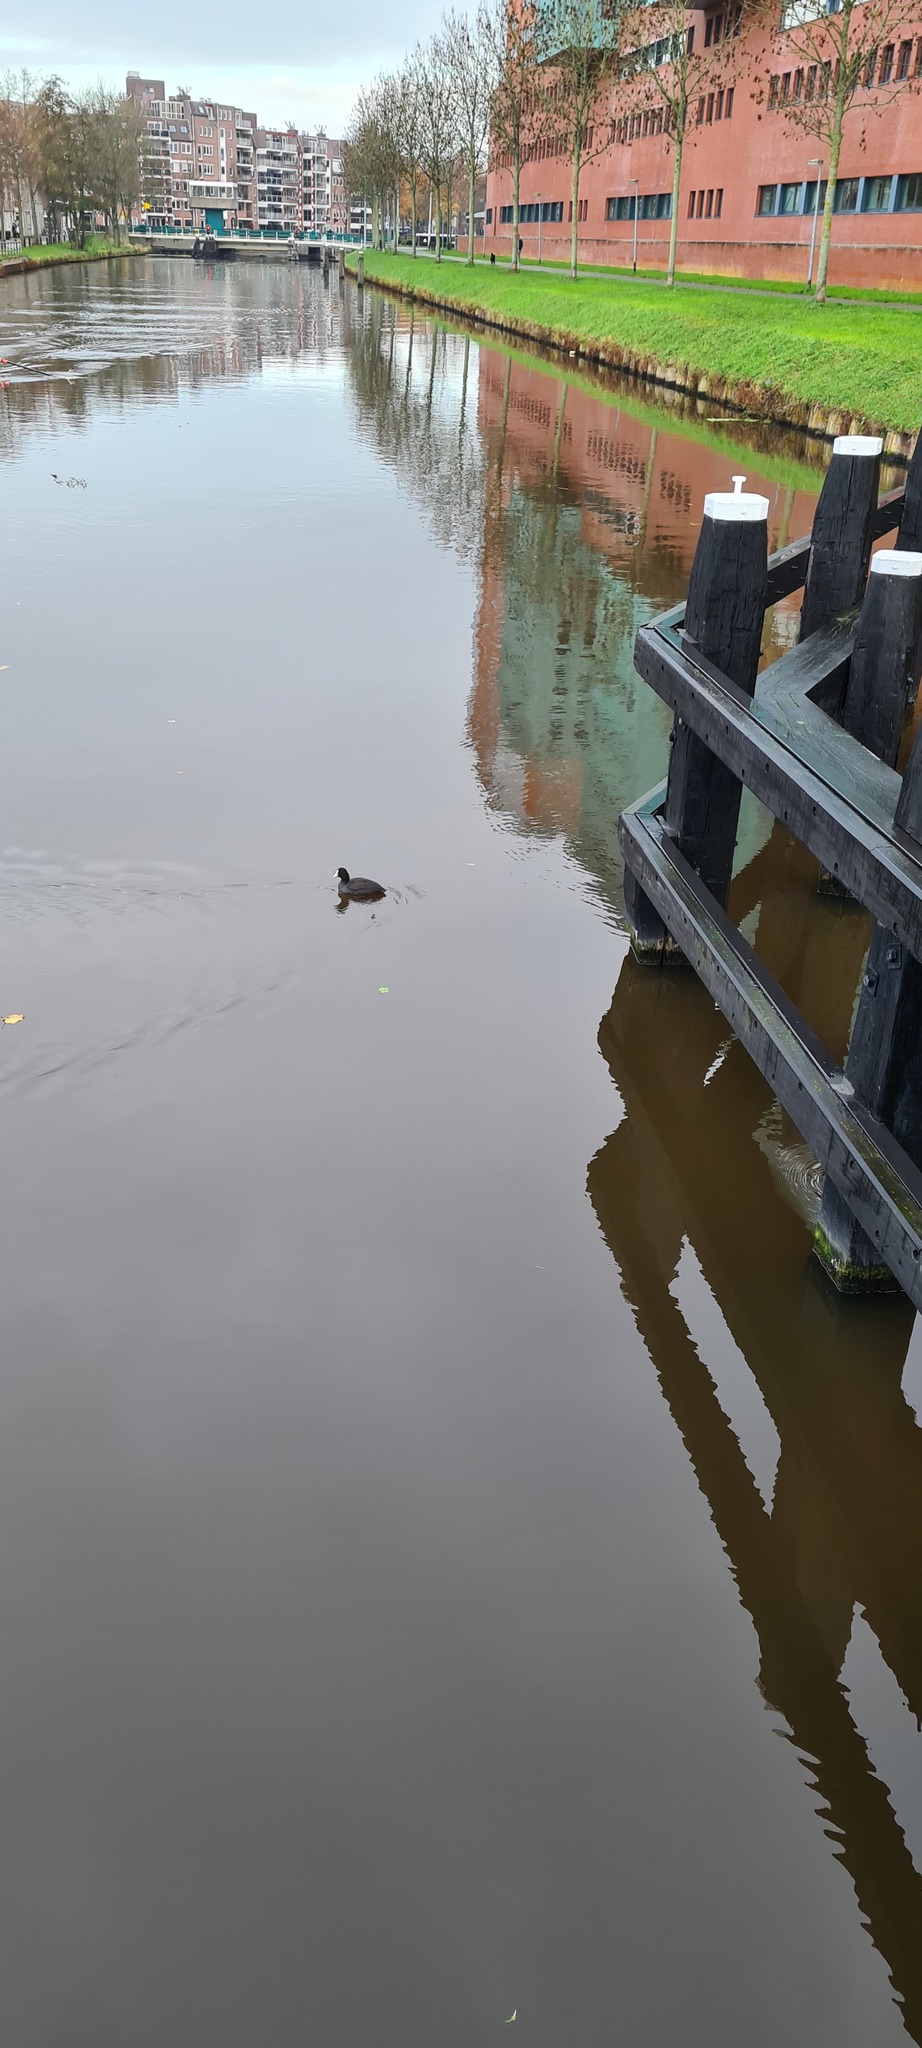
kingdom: Animalia
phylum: Chordata
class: Aves
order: Gruiformes
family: Rallidae
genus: Fulica
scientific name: Fulica atra
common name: Eurasian coot
